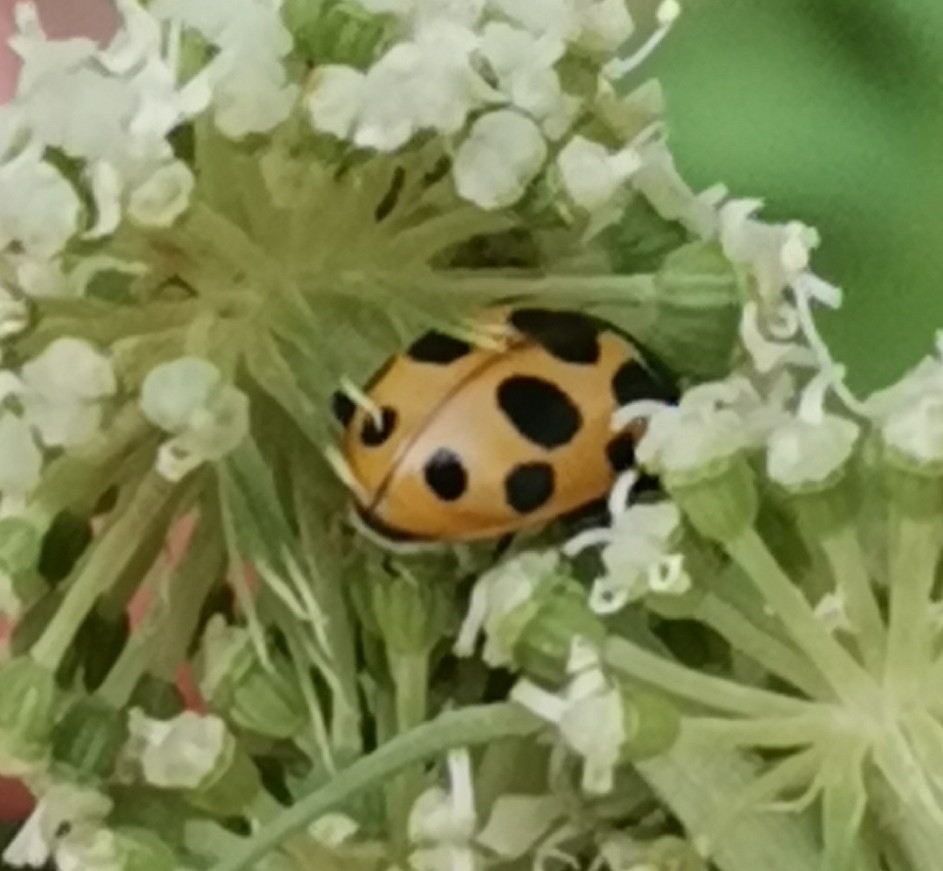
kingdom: Animalia
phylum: Arthropoda
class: Insecta
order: Coleoptera
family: Coccinellidae
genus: Ceratomegilla
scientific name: Ceratomegilla notata
